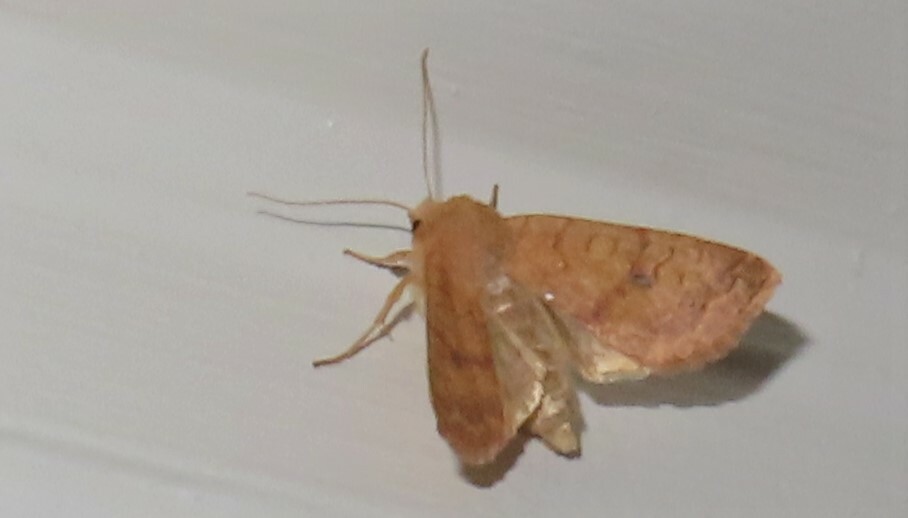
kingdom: Animalia
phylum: Arthropoda
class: Insecta
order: Lepidoptera
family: Noctuidae
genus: Agrochola
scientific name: Agrochola bicolorago
